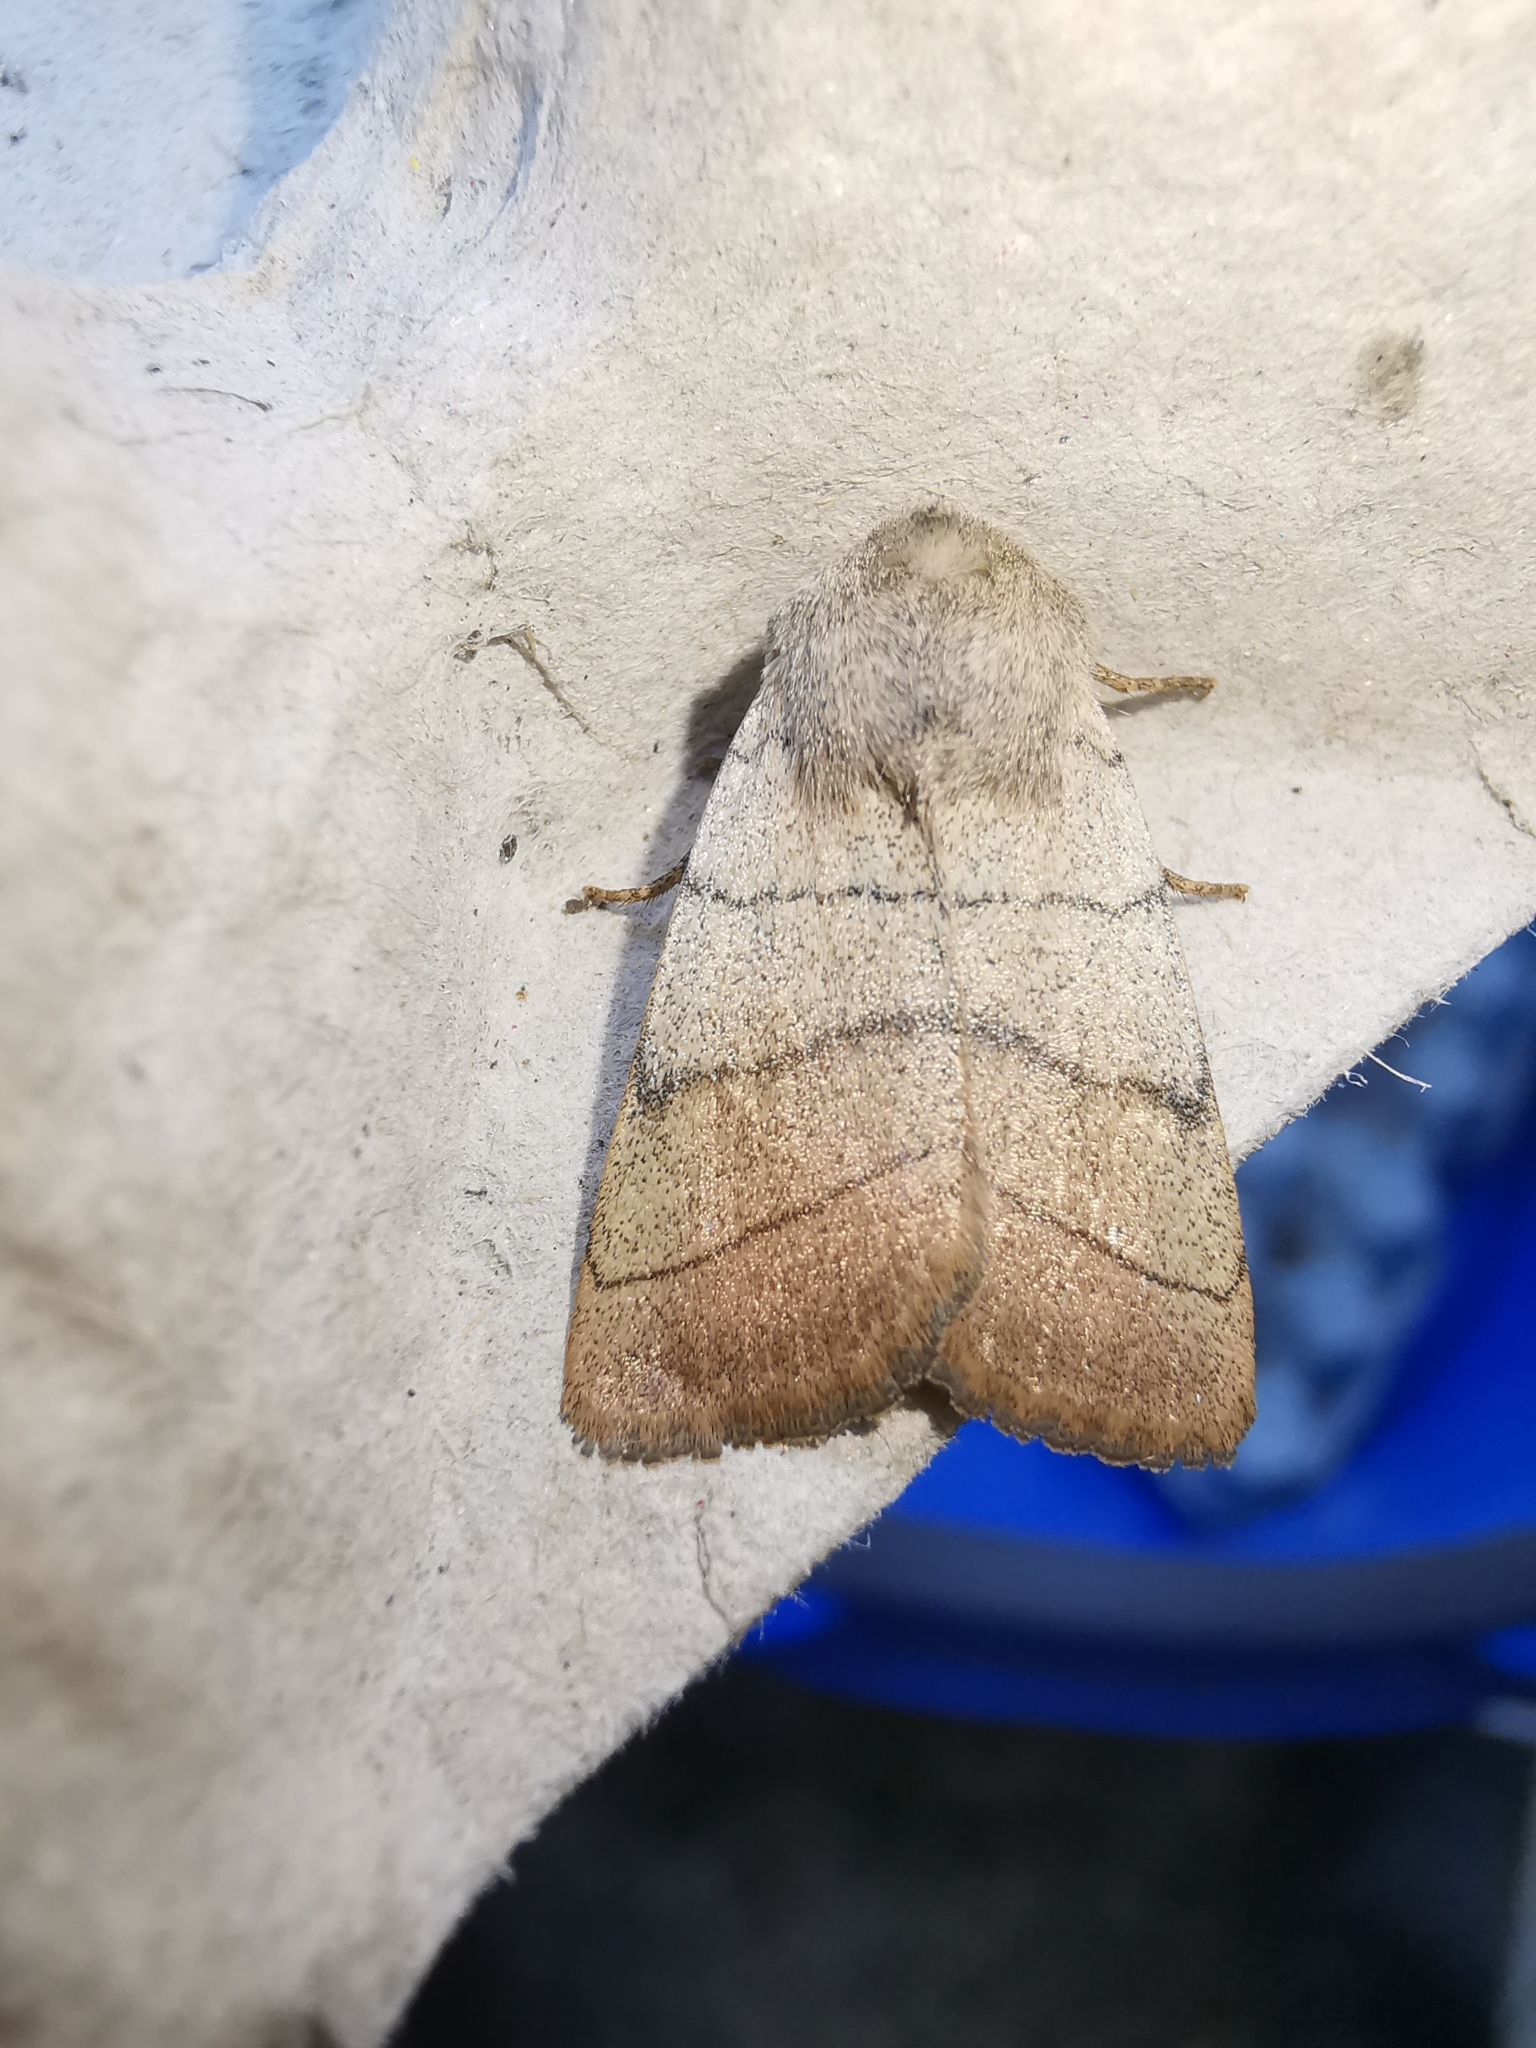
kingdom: Animalia
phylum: Arthropoda
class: Insecta
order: Lepidoptera
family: Noctuidae
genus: Charanyca
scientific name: Charanyca trigrammica
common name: Treble lines
